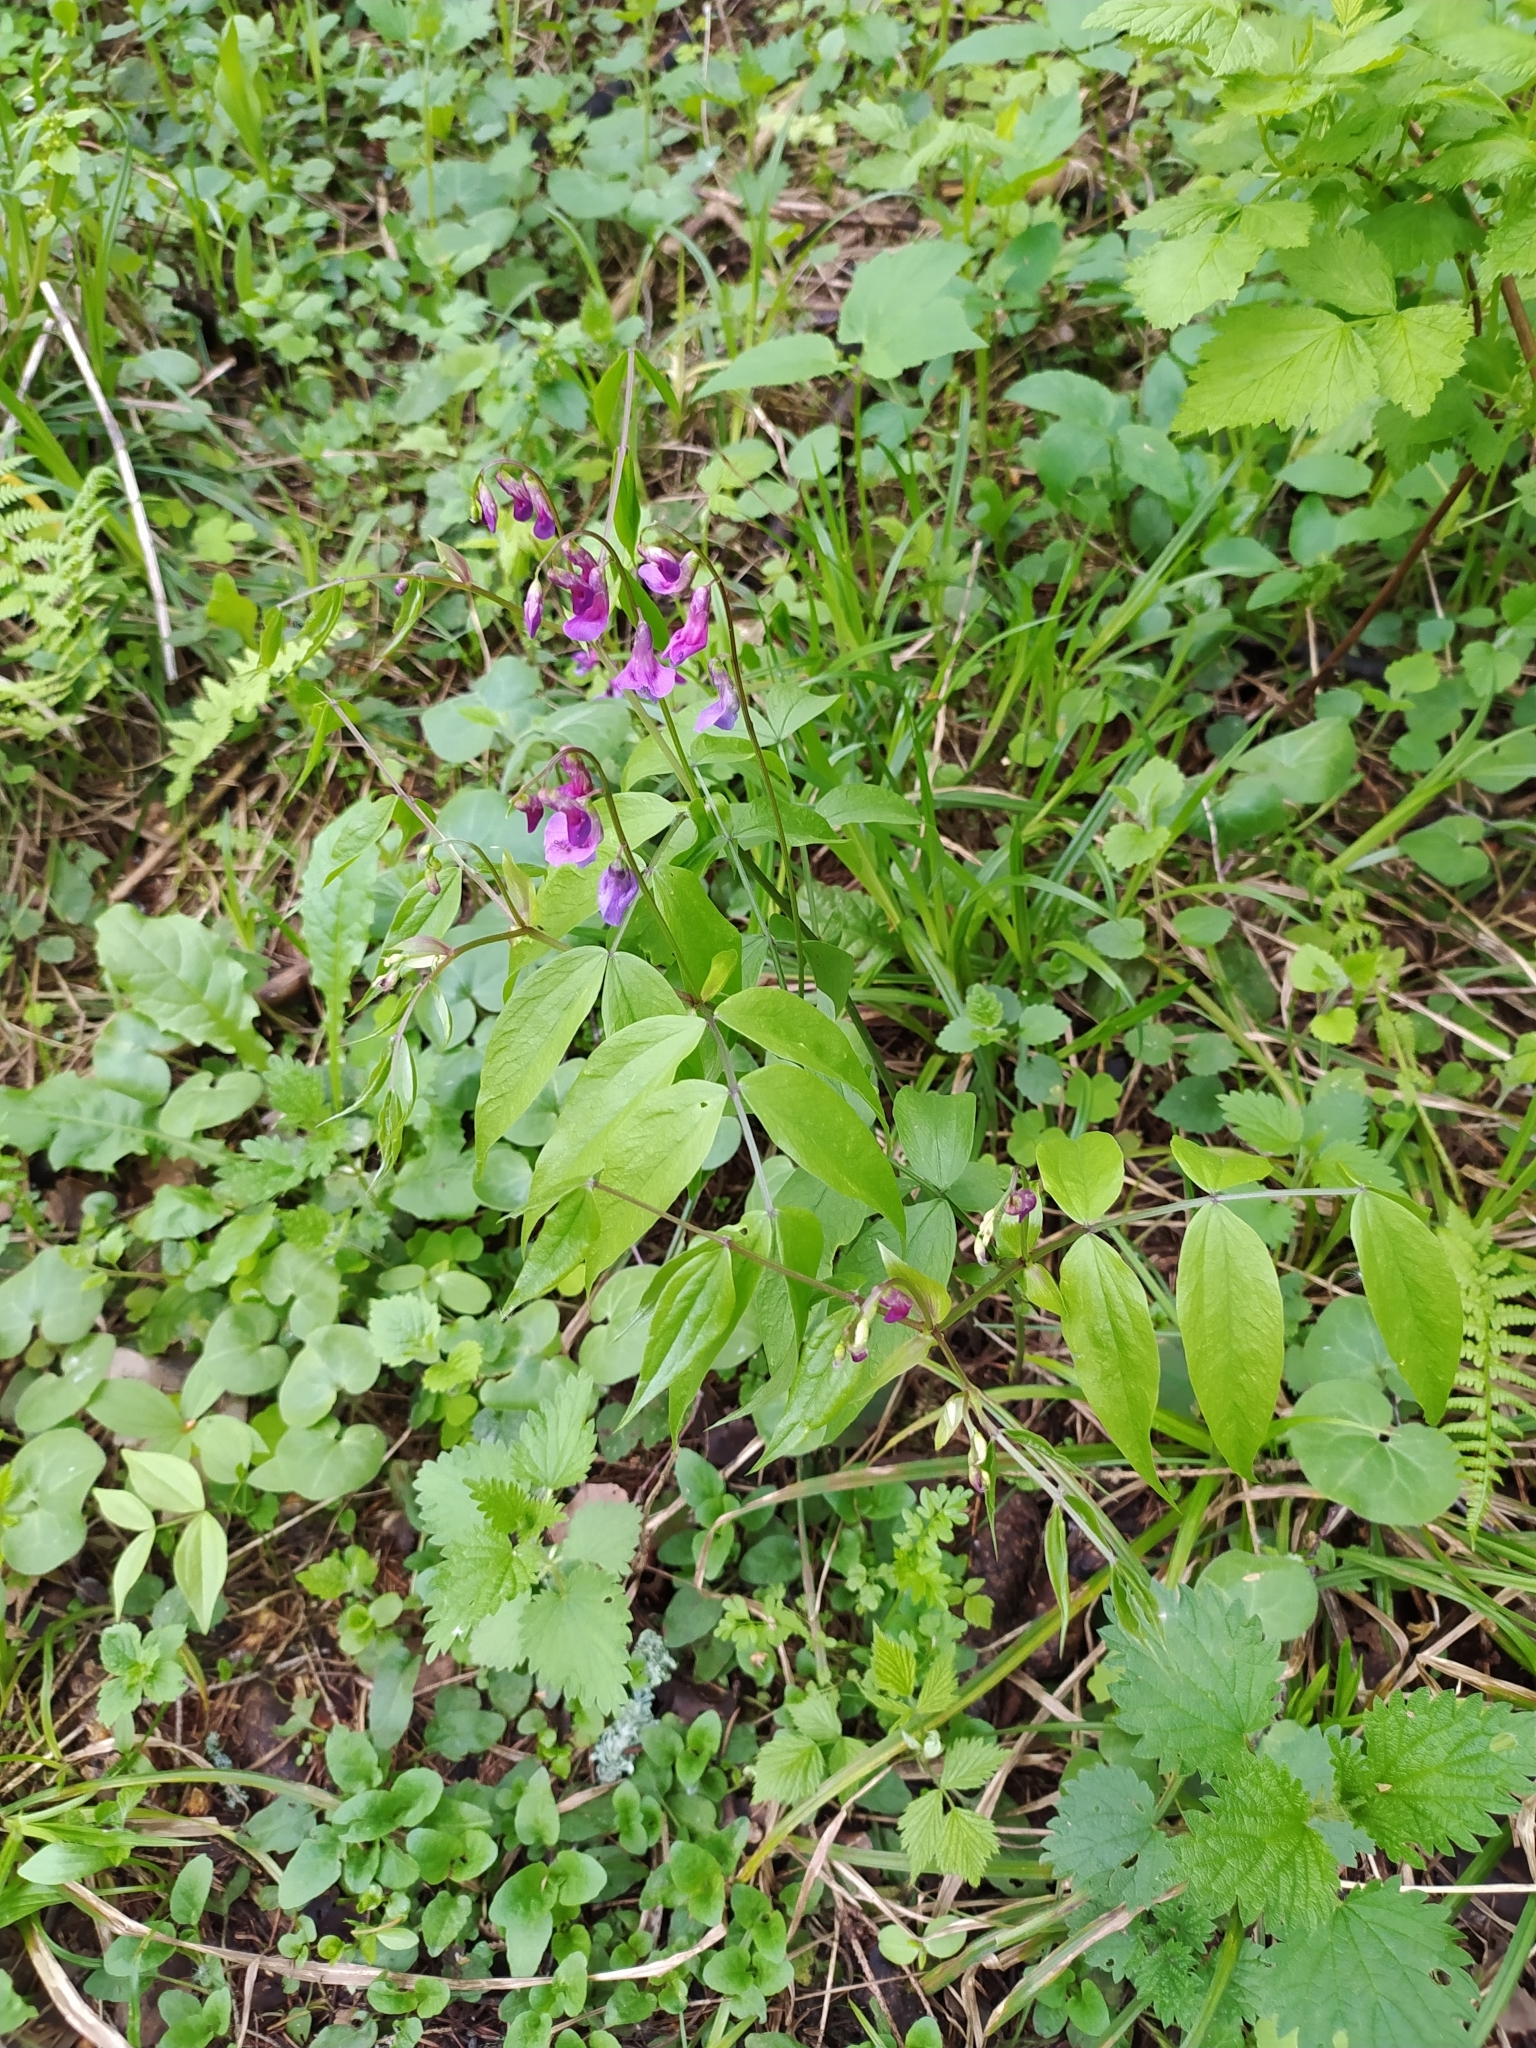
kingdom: Plantae
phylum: Tracheophyta
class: Magnoliopsida
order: Fabales
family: Fabaceae
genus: Lathyrus
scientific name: Lathyrus vernus
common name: Spring pea
